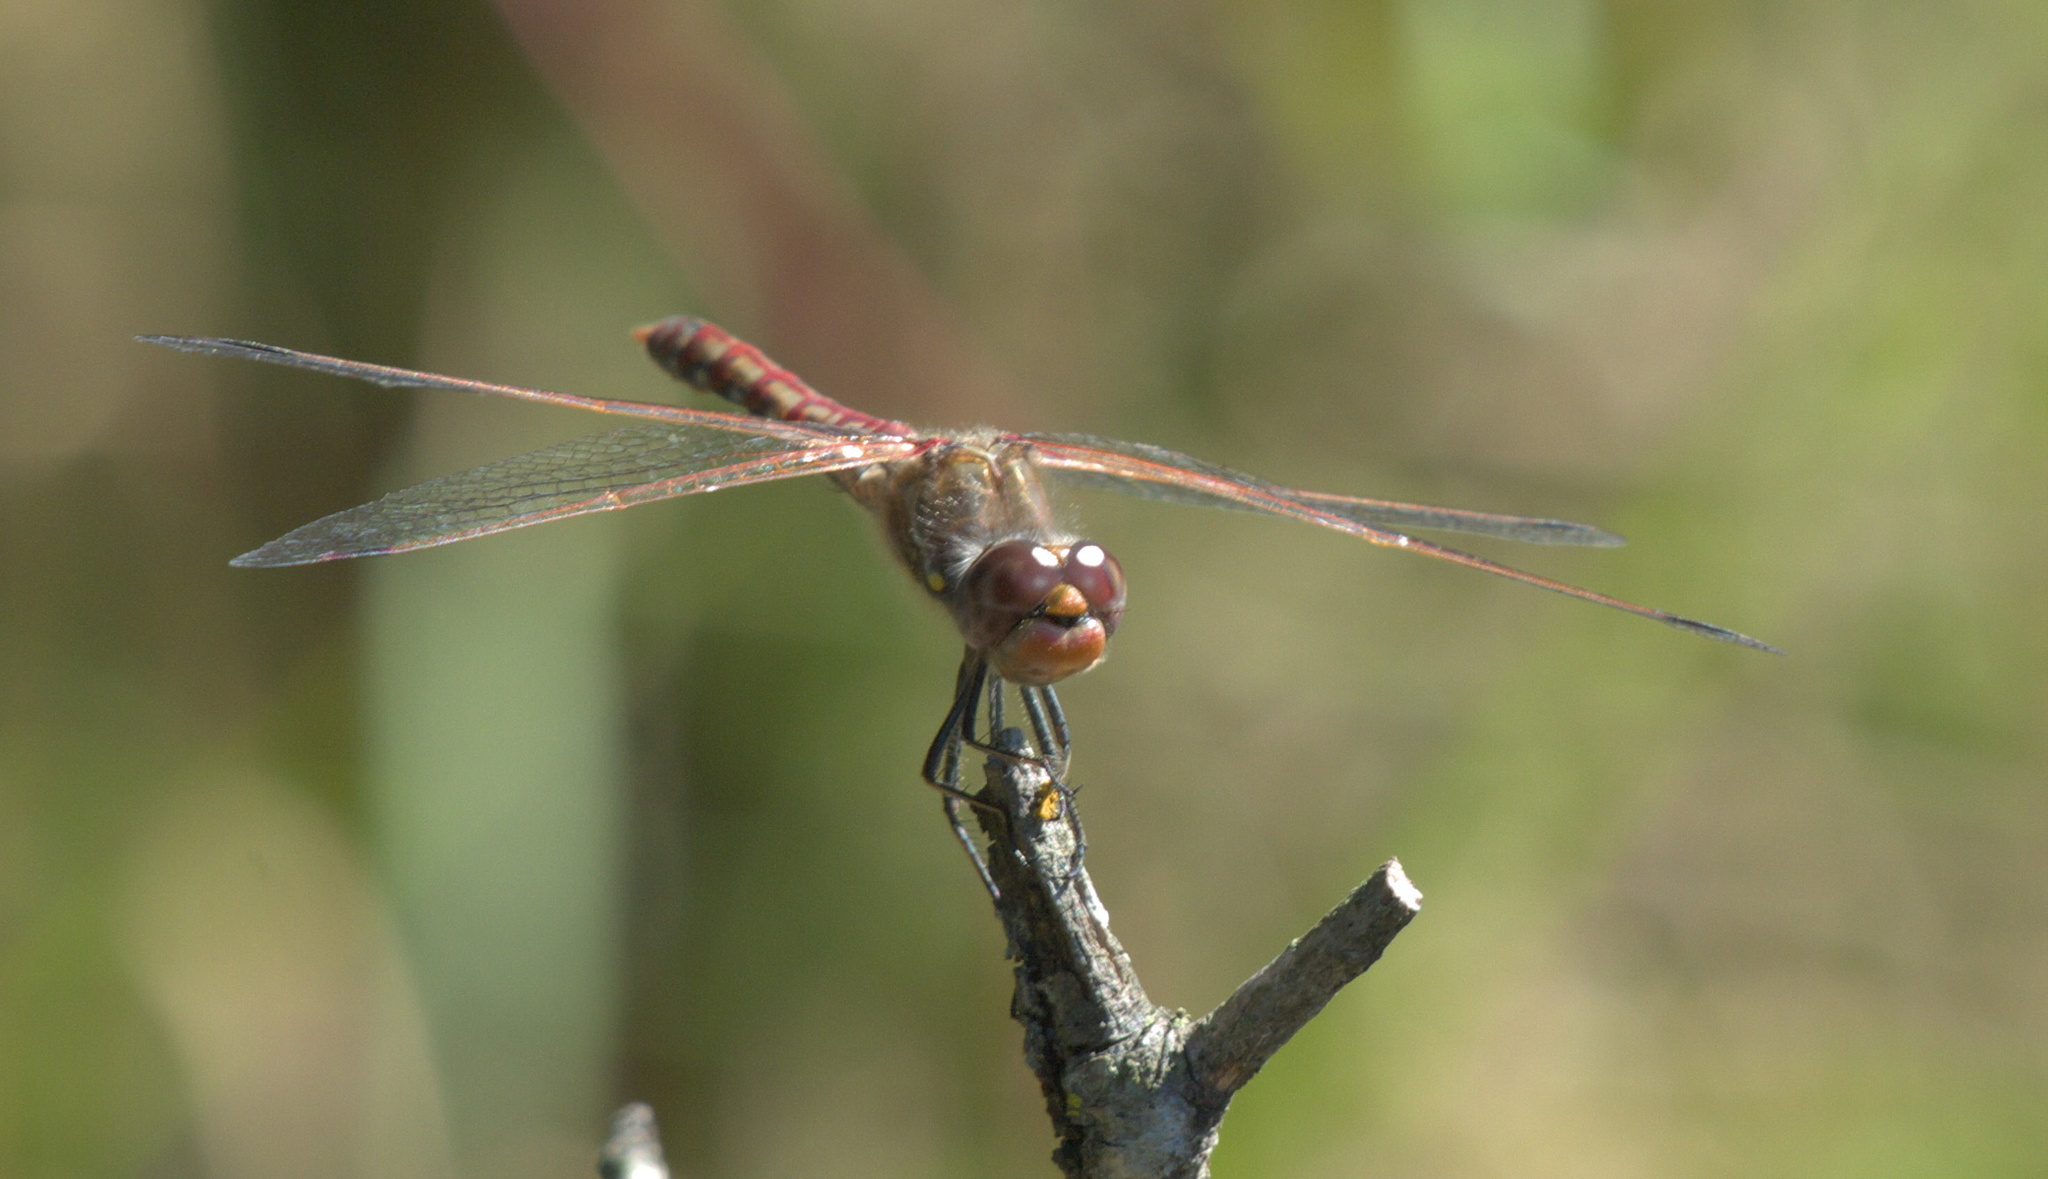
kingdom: Animalia
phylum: Arthropoda
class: Insecta
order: Odonata
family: Libellulidae
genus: Sympetrum
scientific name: Sympetrum corruptum
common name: Variegated meadowhawk
